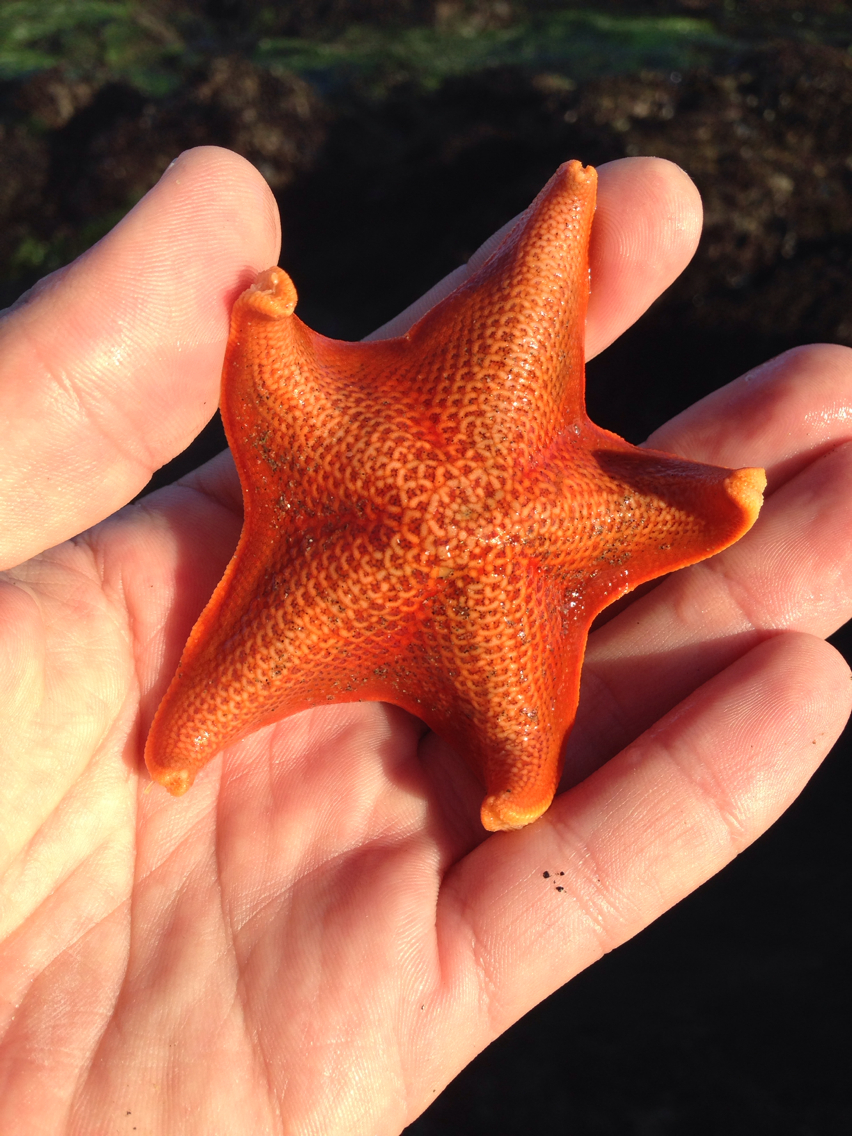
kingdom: Animalia
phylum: Echinodermata
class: Asteroidea
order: Valvatida
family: Asterinidae
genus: Patiria
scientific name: Patiria miniata
